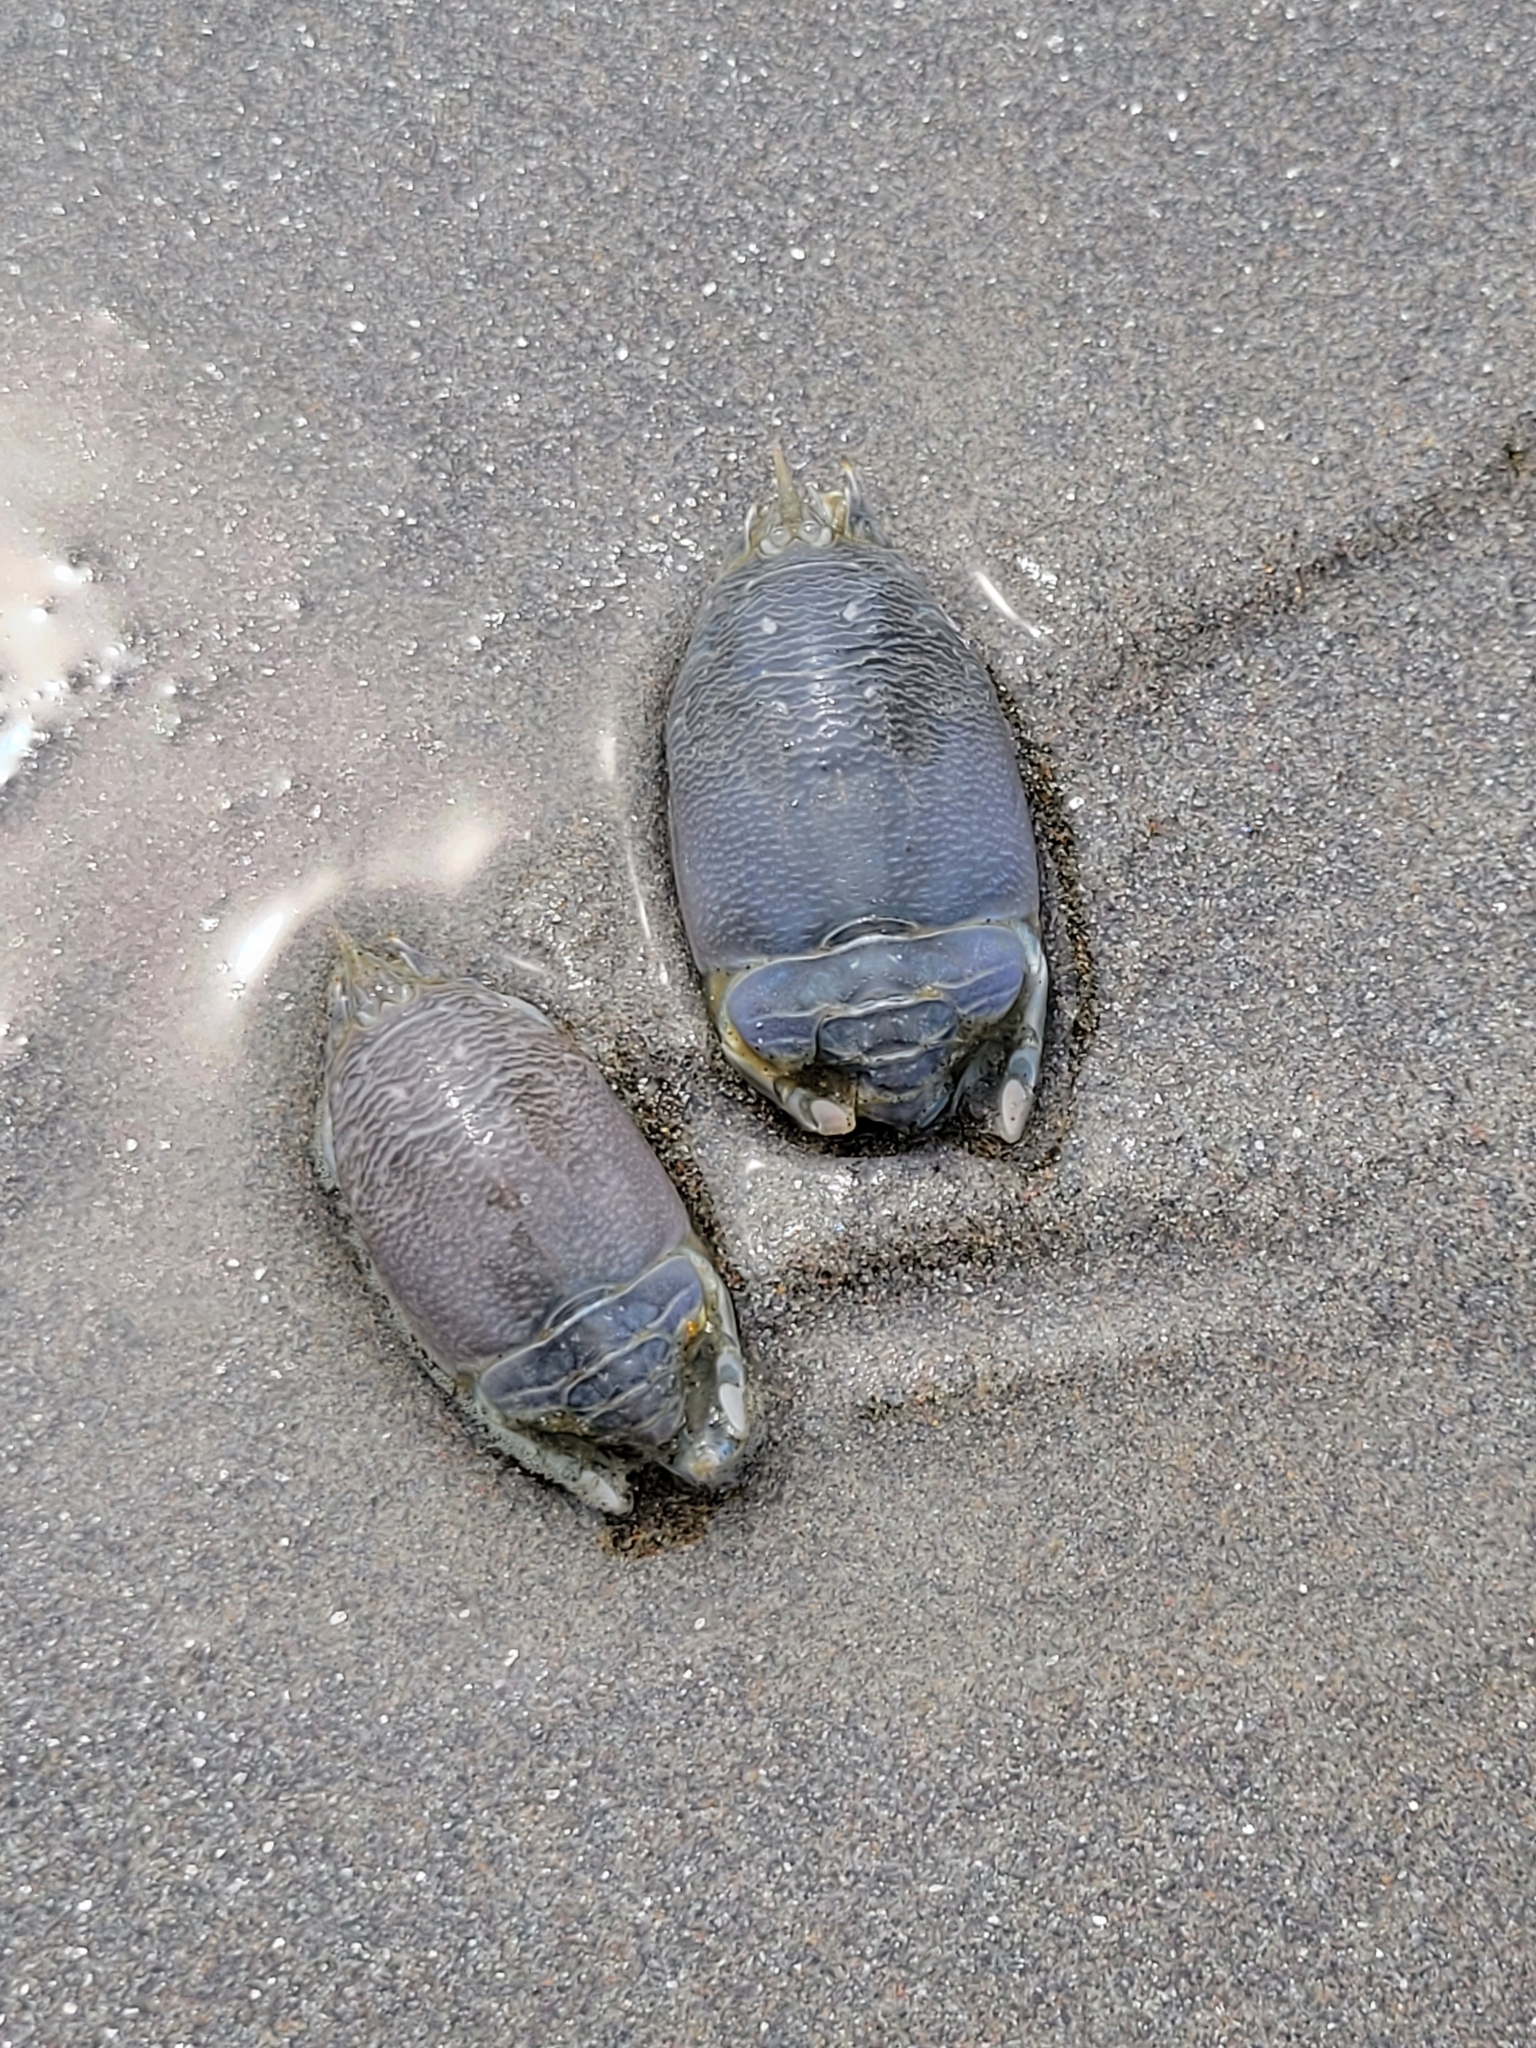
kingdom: Animalia
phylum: Arthropoda
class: Malacostraca
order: Decapoda
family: Hippidae
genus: Emerita
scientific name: Emerita analoga
